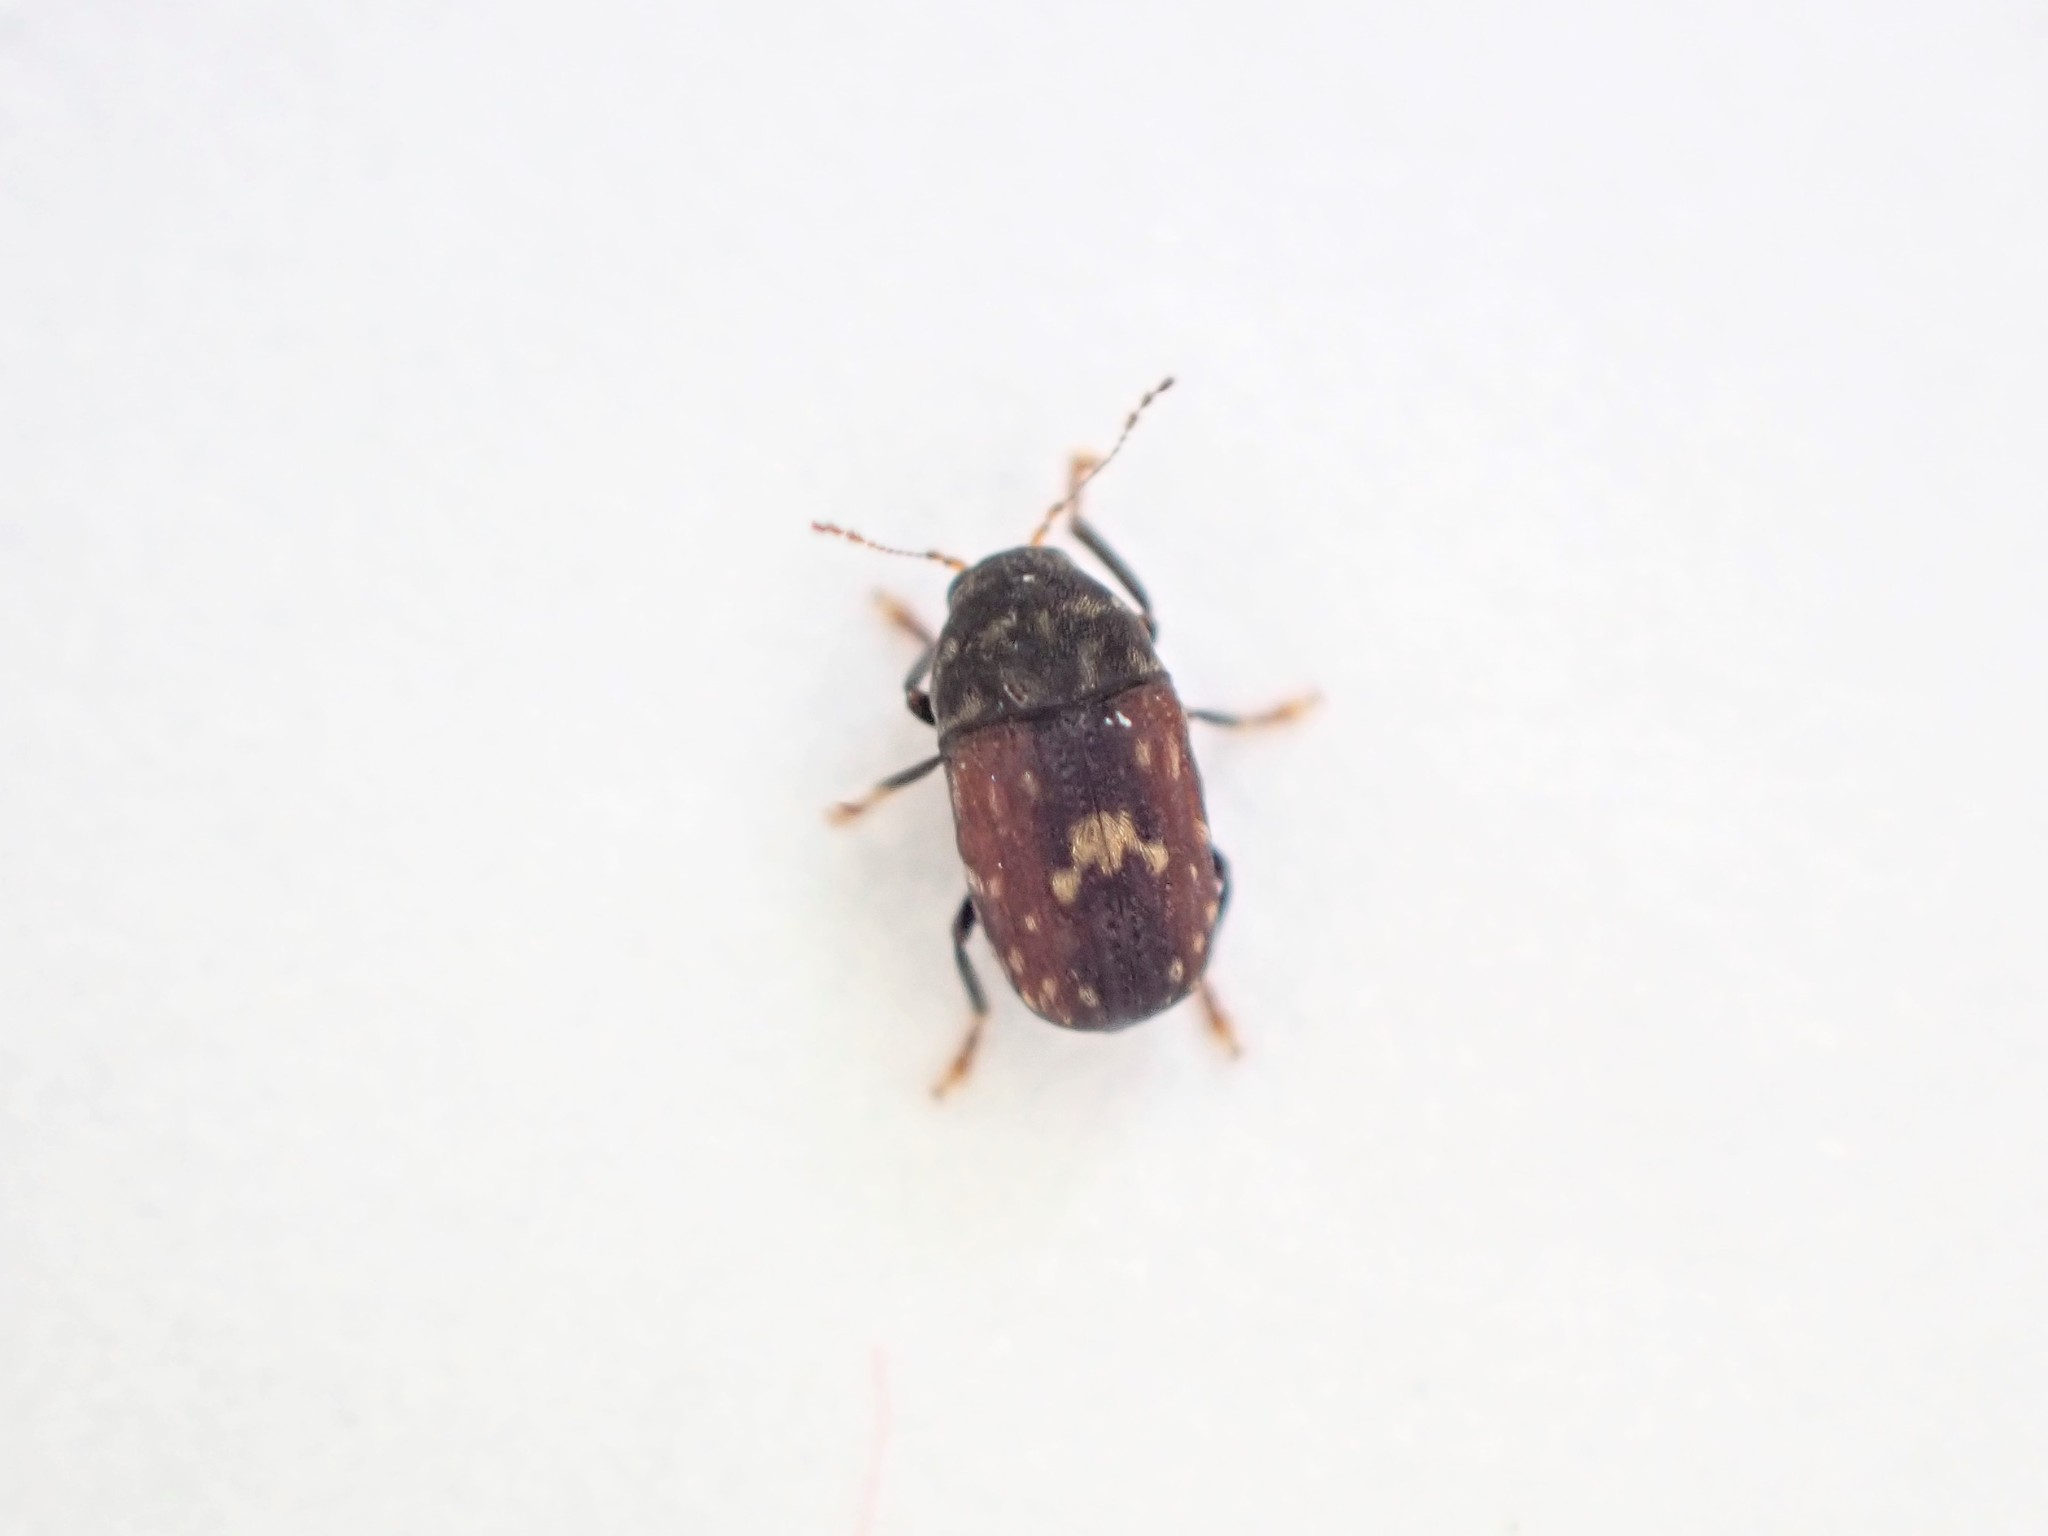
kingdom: Animalia
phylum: Arthropoda
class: Insecta
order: Coleoptera
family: Anthribidae
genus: Notochoragus
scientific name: Notochoragus
